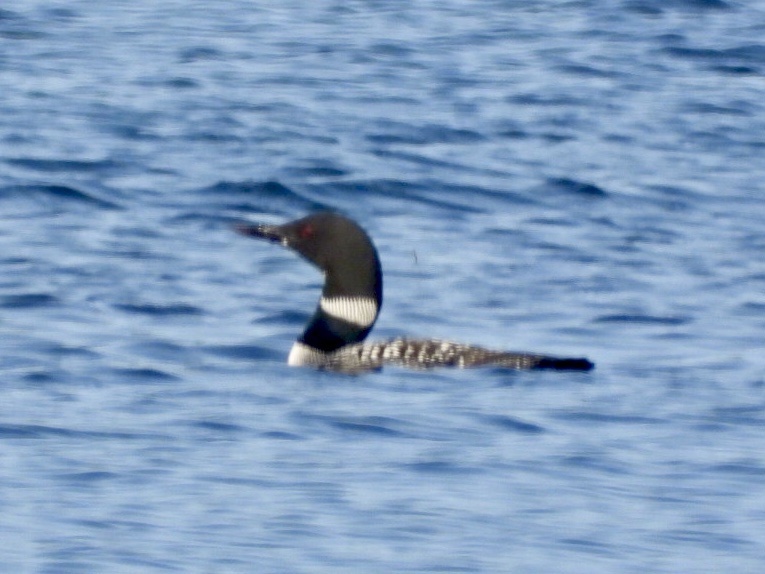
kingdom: Animalia
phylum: Chordata
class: Aves
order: Gaviiformes
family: Gaviidae
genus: Gavia
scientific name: Gavia immer
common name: Common loon
